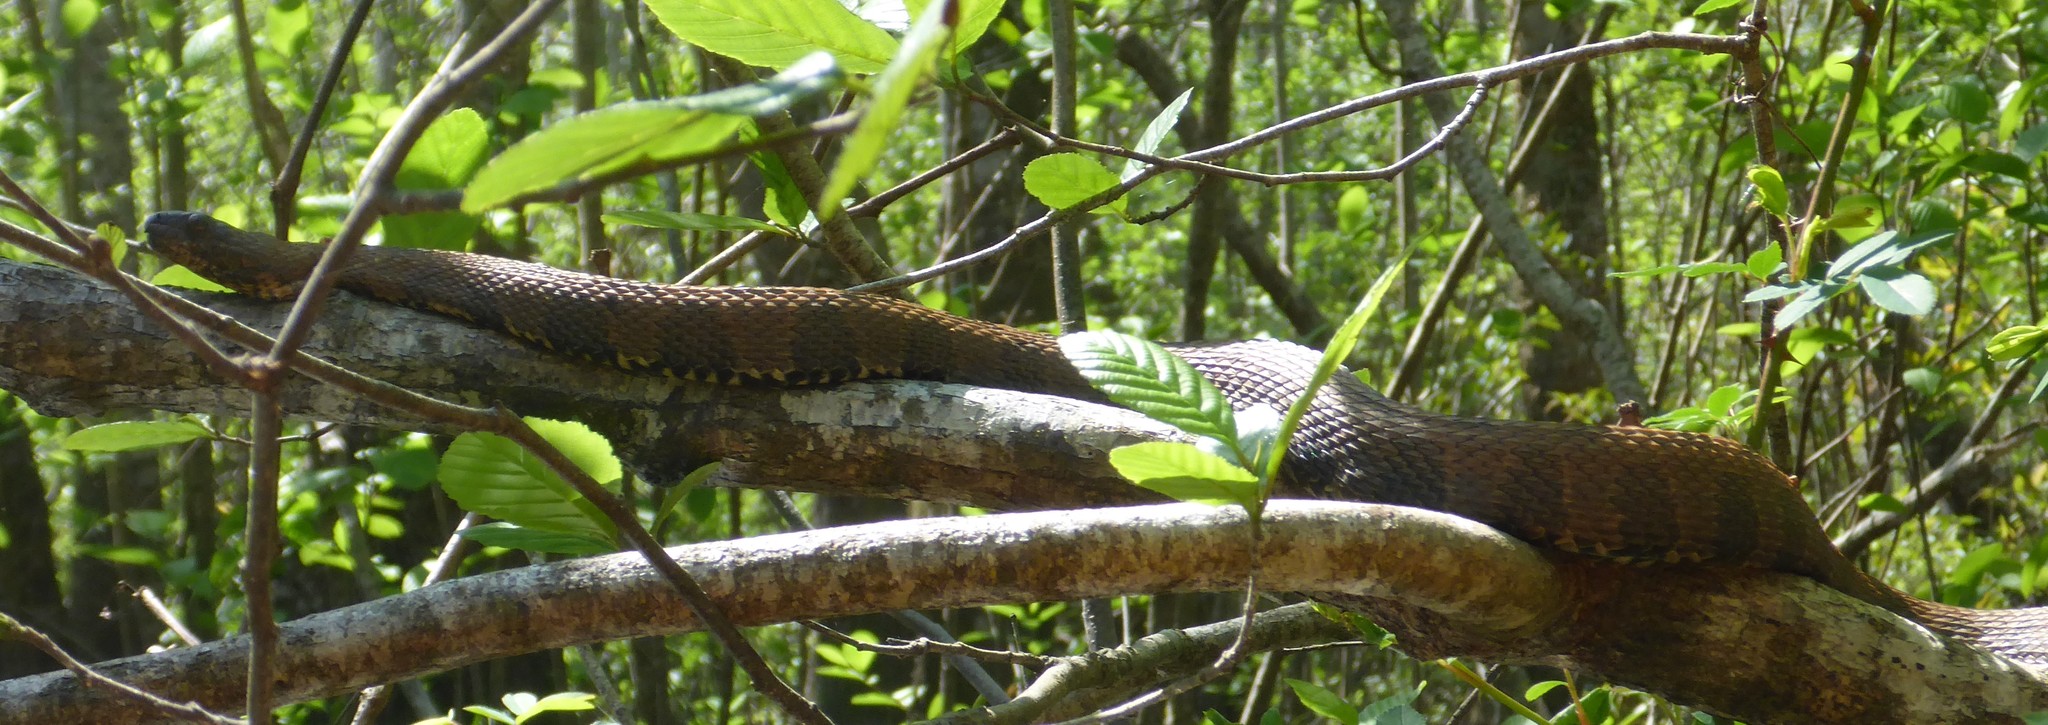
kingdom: Animalia
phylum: Chordata
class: Squamata
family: Colubridae
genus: Nerodia
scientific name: Nerodia taxispilota
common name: Brown water snake
